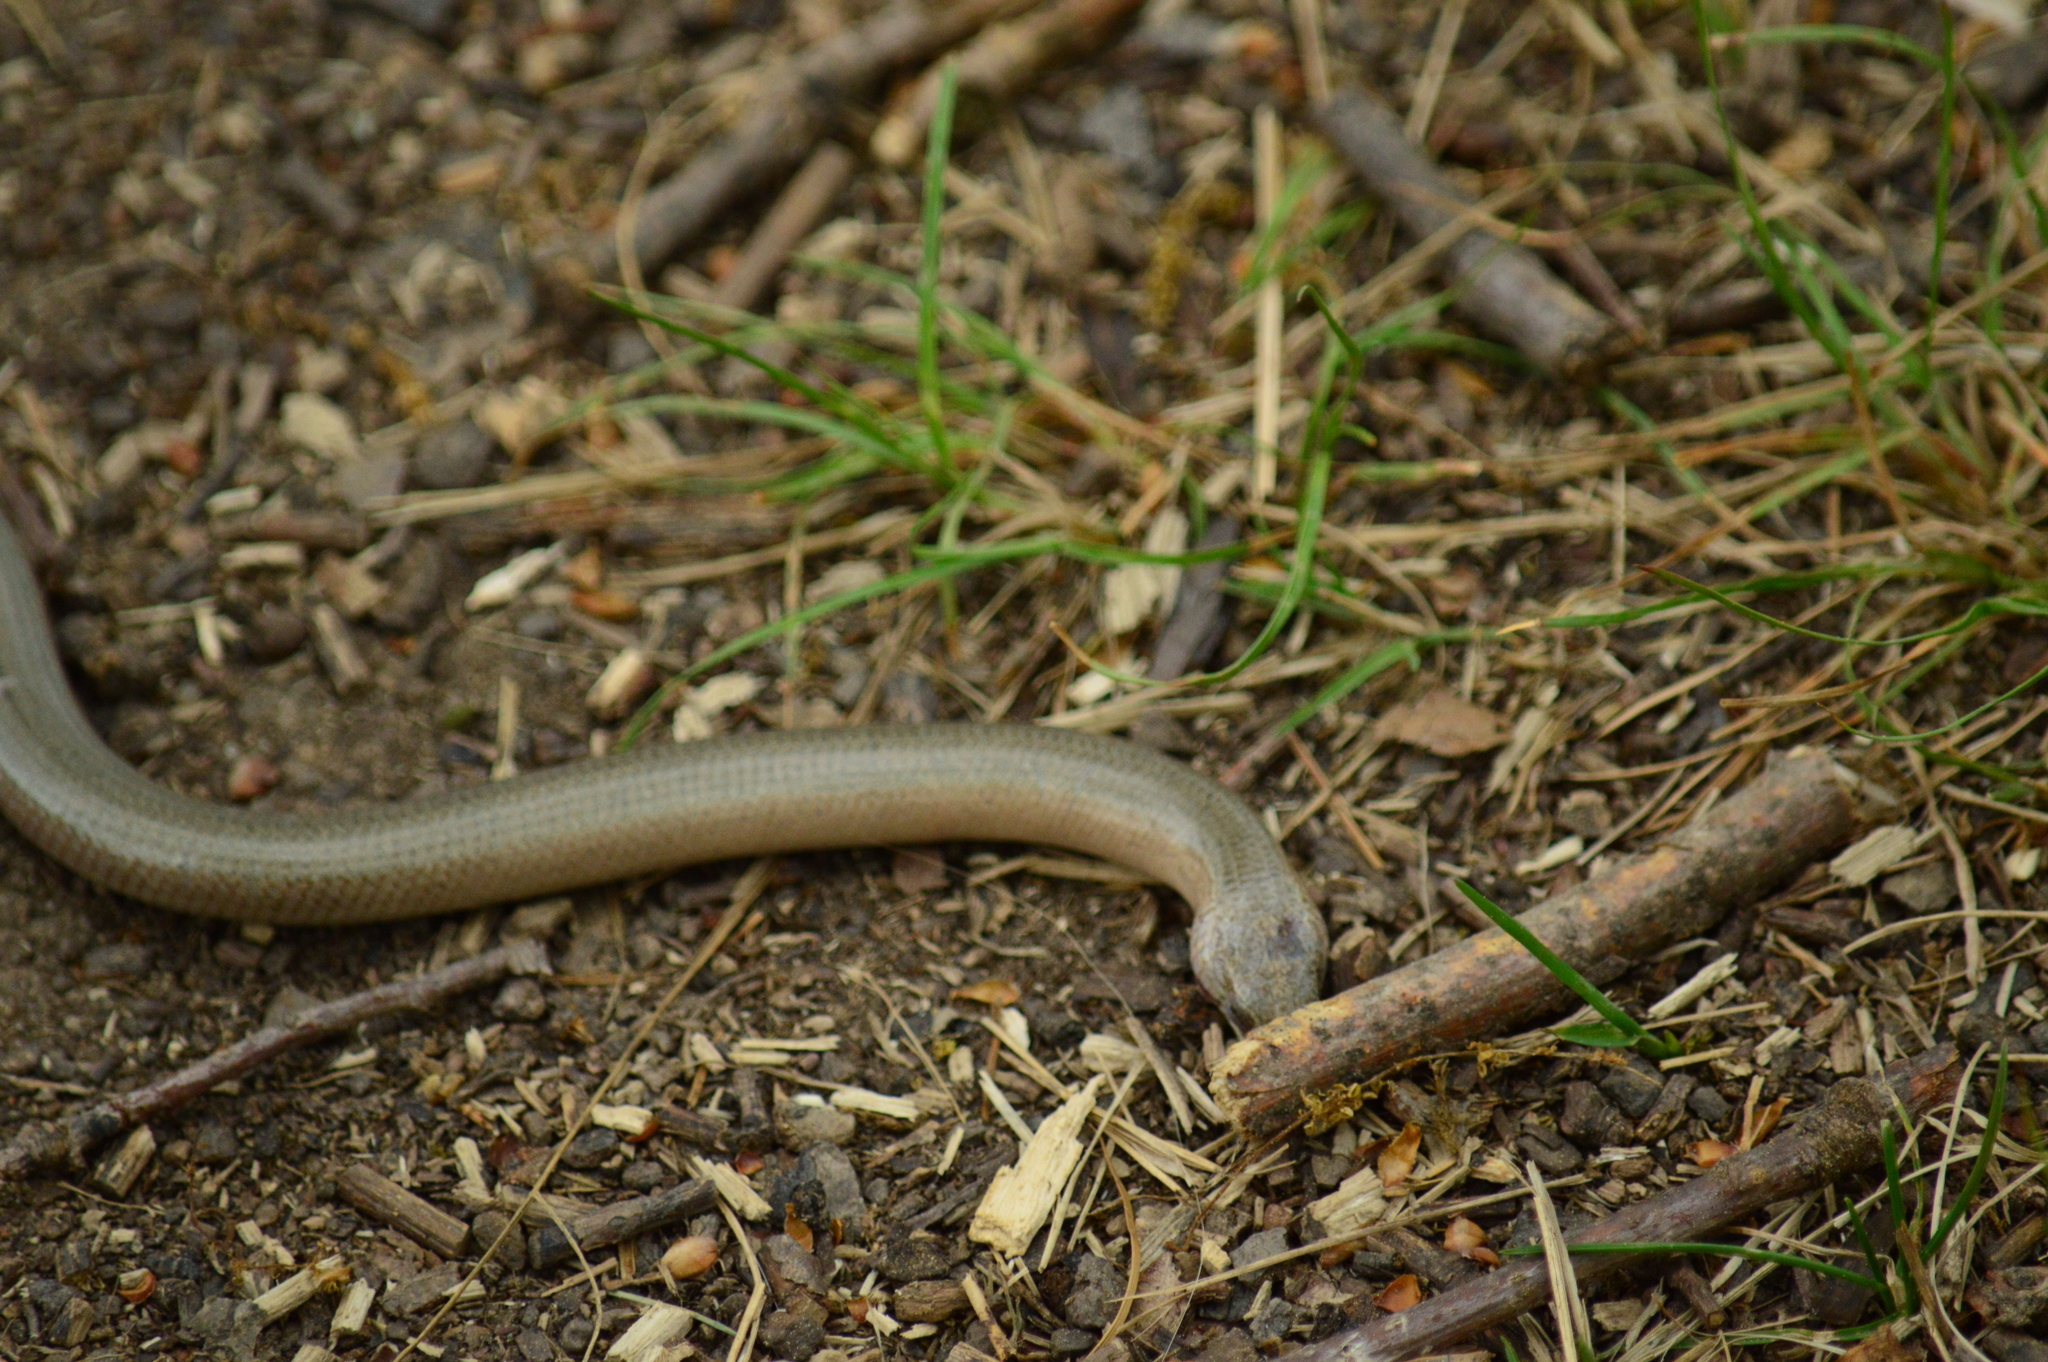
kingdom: Animalia
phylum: Chordata
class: Squamata
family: Anguidae
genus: Anguis
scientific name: Anguis fragilis
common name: Slow worm
